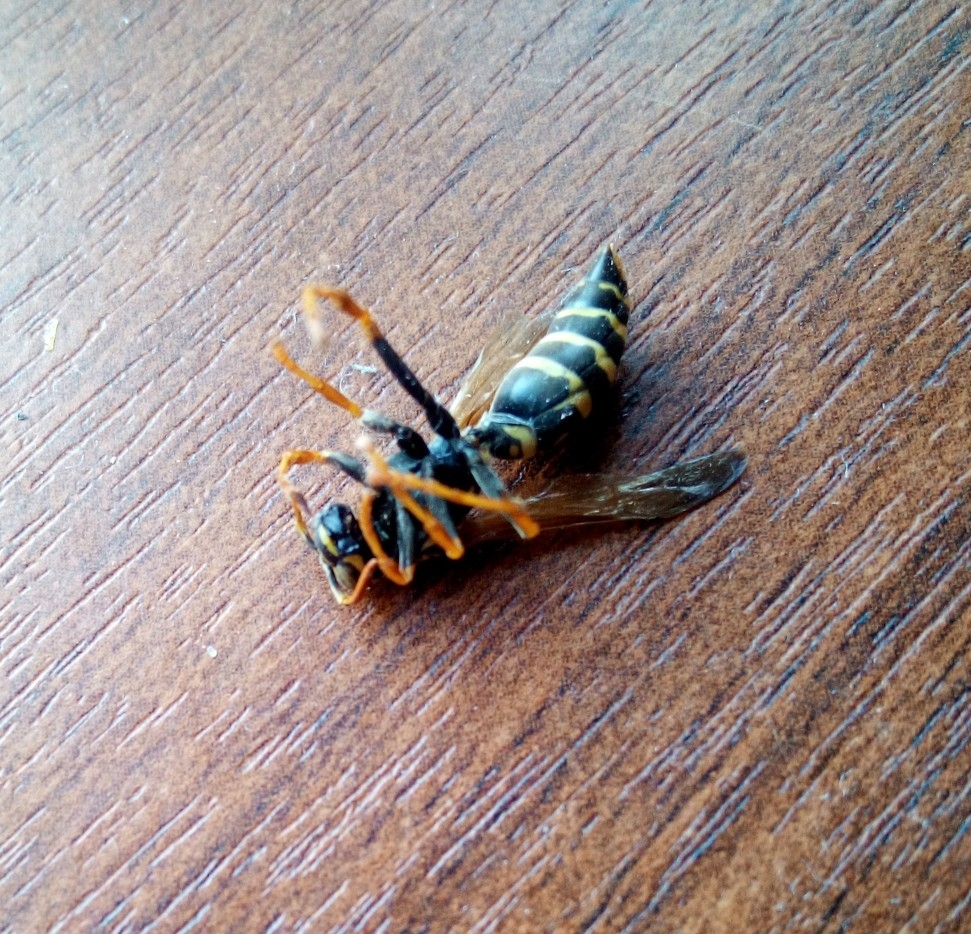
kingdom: Animalia
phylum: Arthropoda
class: Insecta
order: Hymenoptera
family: Eumenidae
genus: Polistes
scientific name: Polistes nimpha
